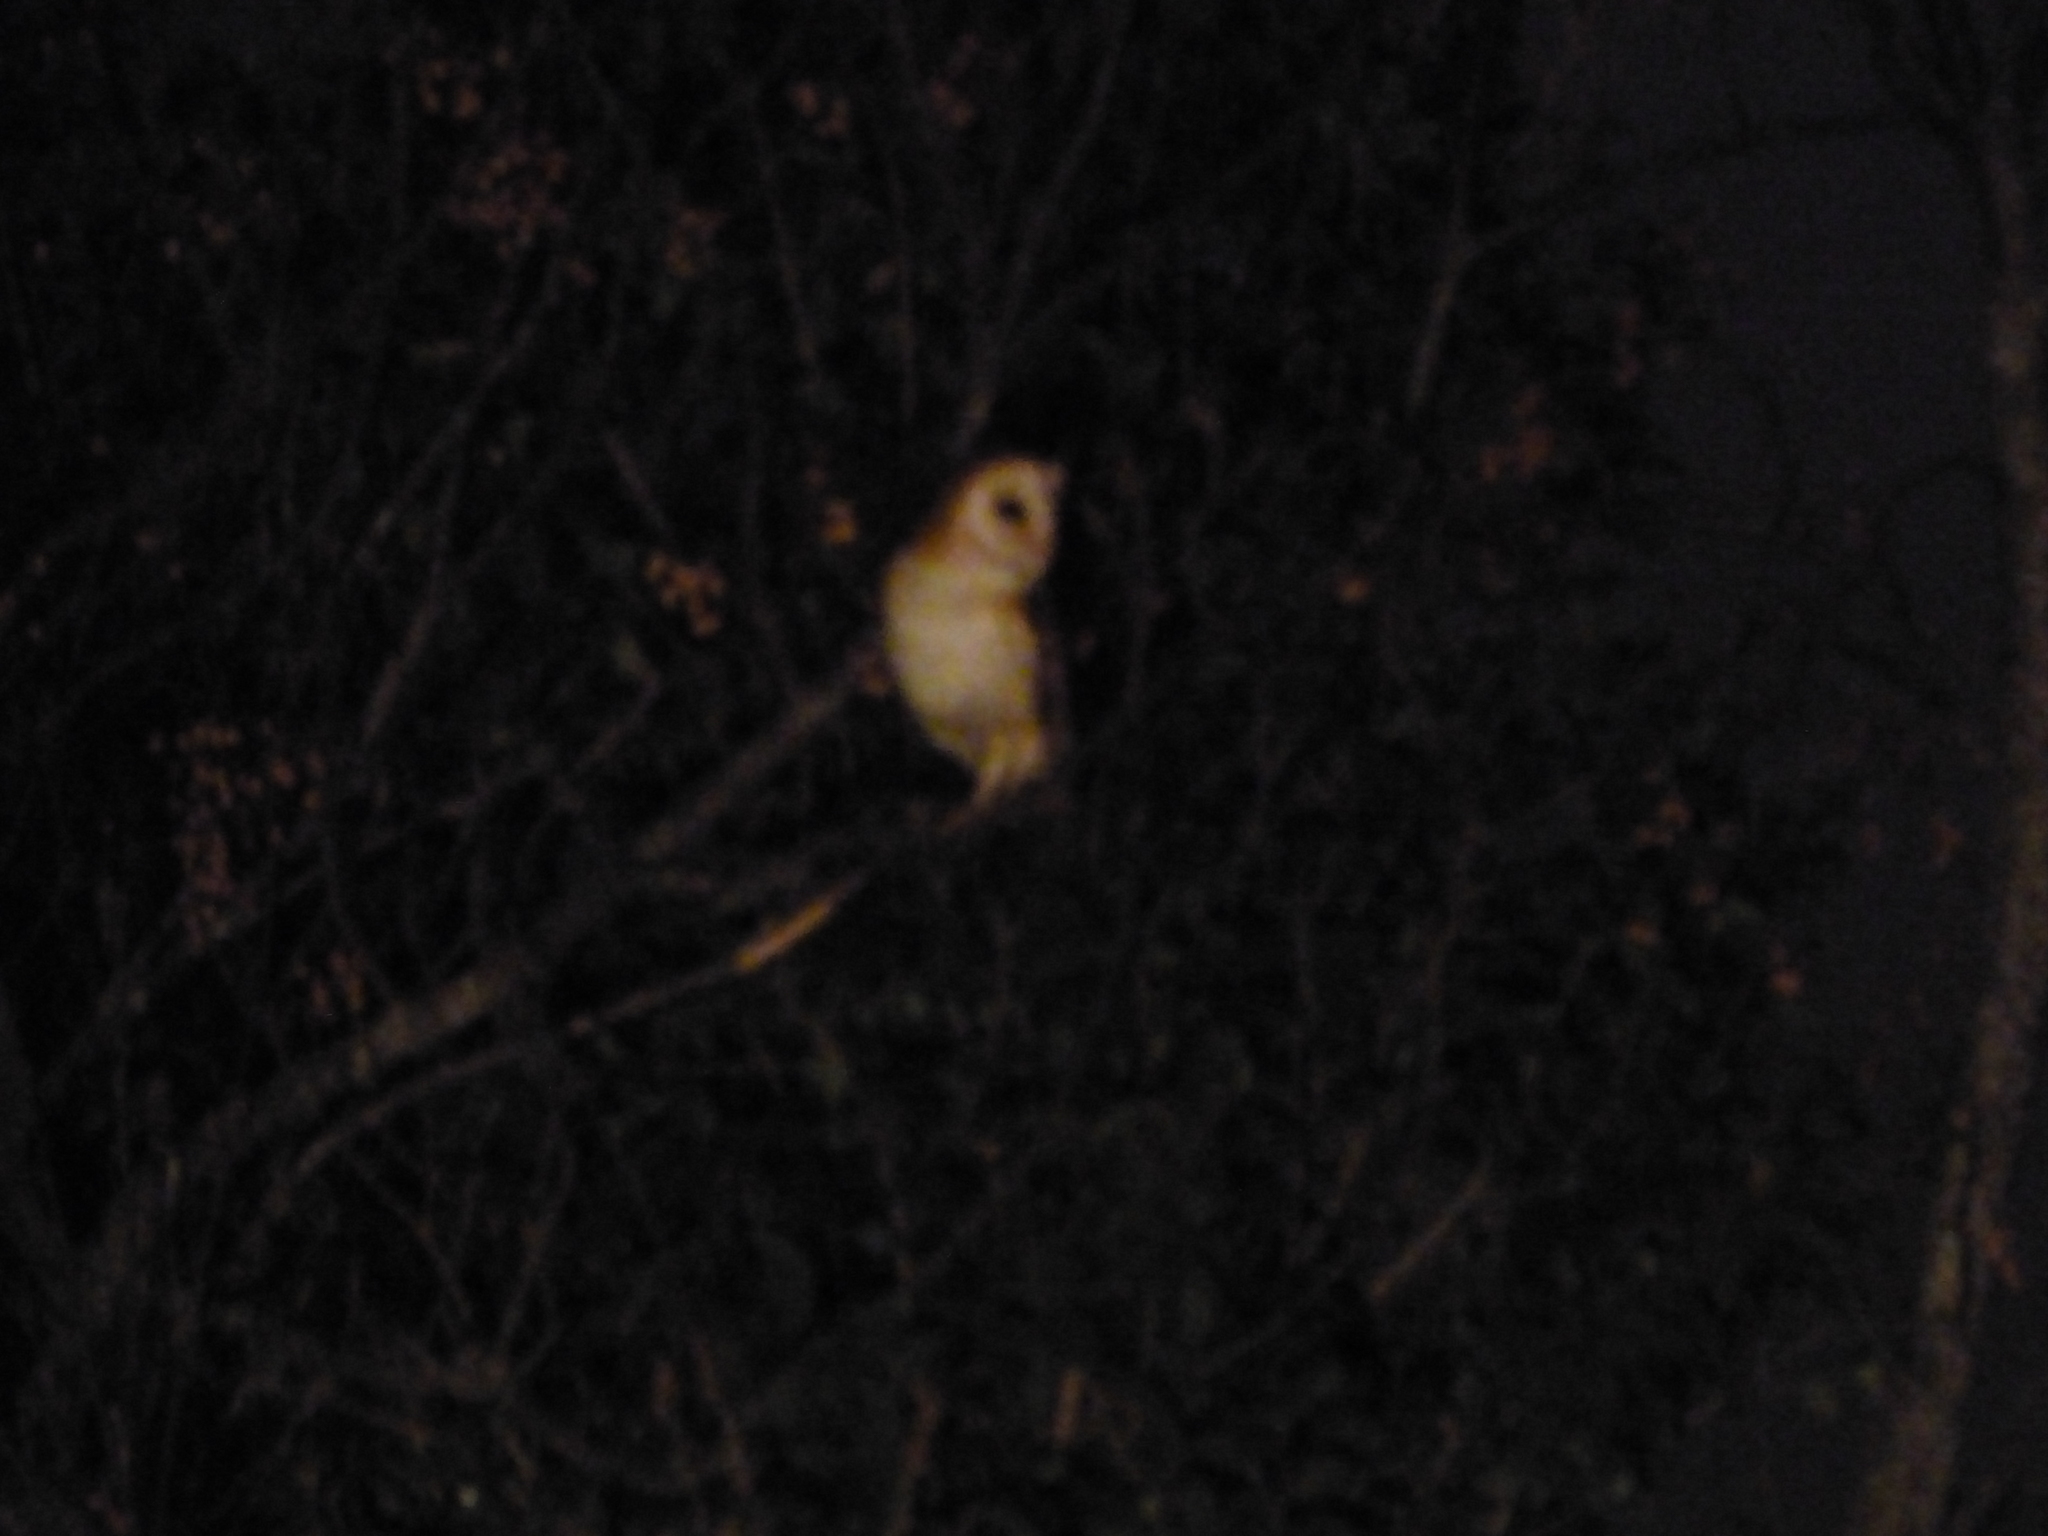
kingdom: Animalia
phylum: Chordata
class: Aves
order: Strigiformes
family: Tytonidae
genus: Tyto
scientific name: Tyto alba
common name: Barn owl
